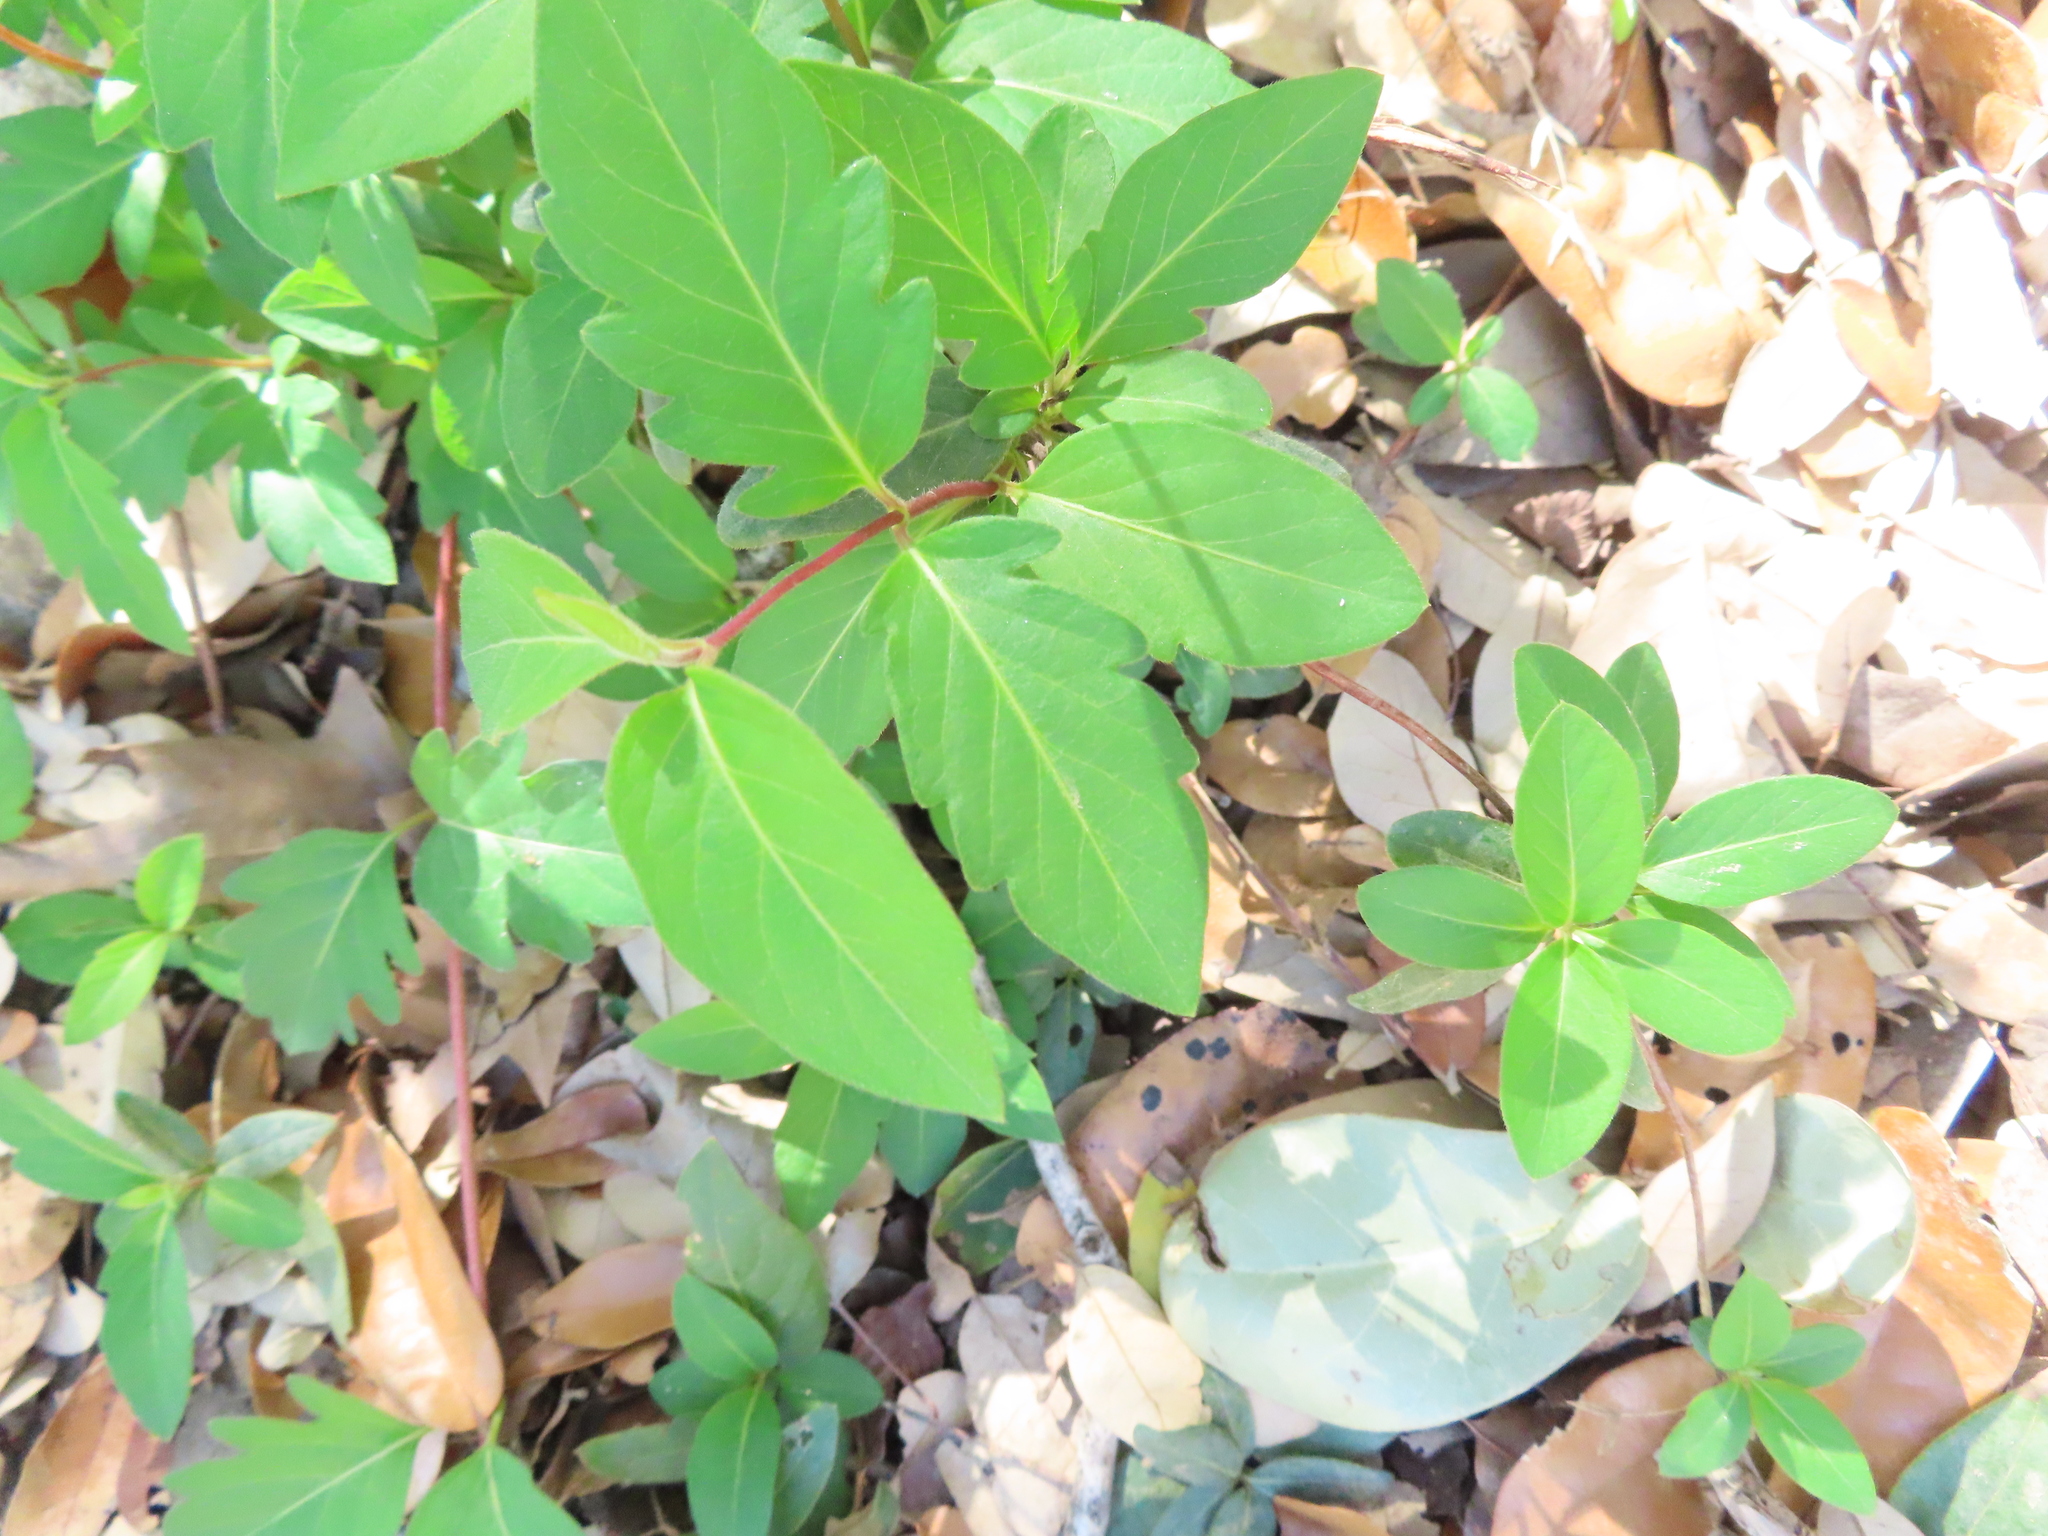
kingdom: Plantae
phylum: Tracheophyta
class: Magnoliopsida
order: Dipsacales
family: Caprifoliaceae
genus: Lonicera
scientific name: Lonicera japonica
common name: Japanese honeysuckle
